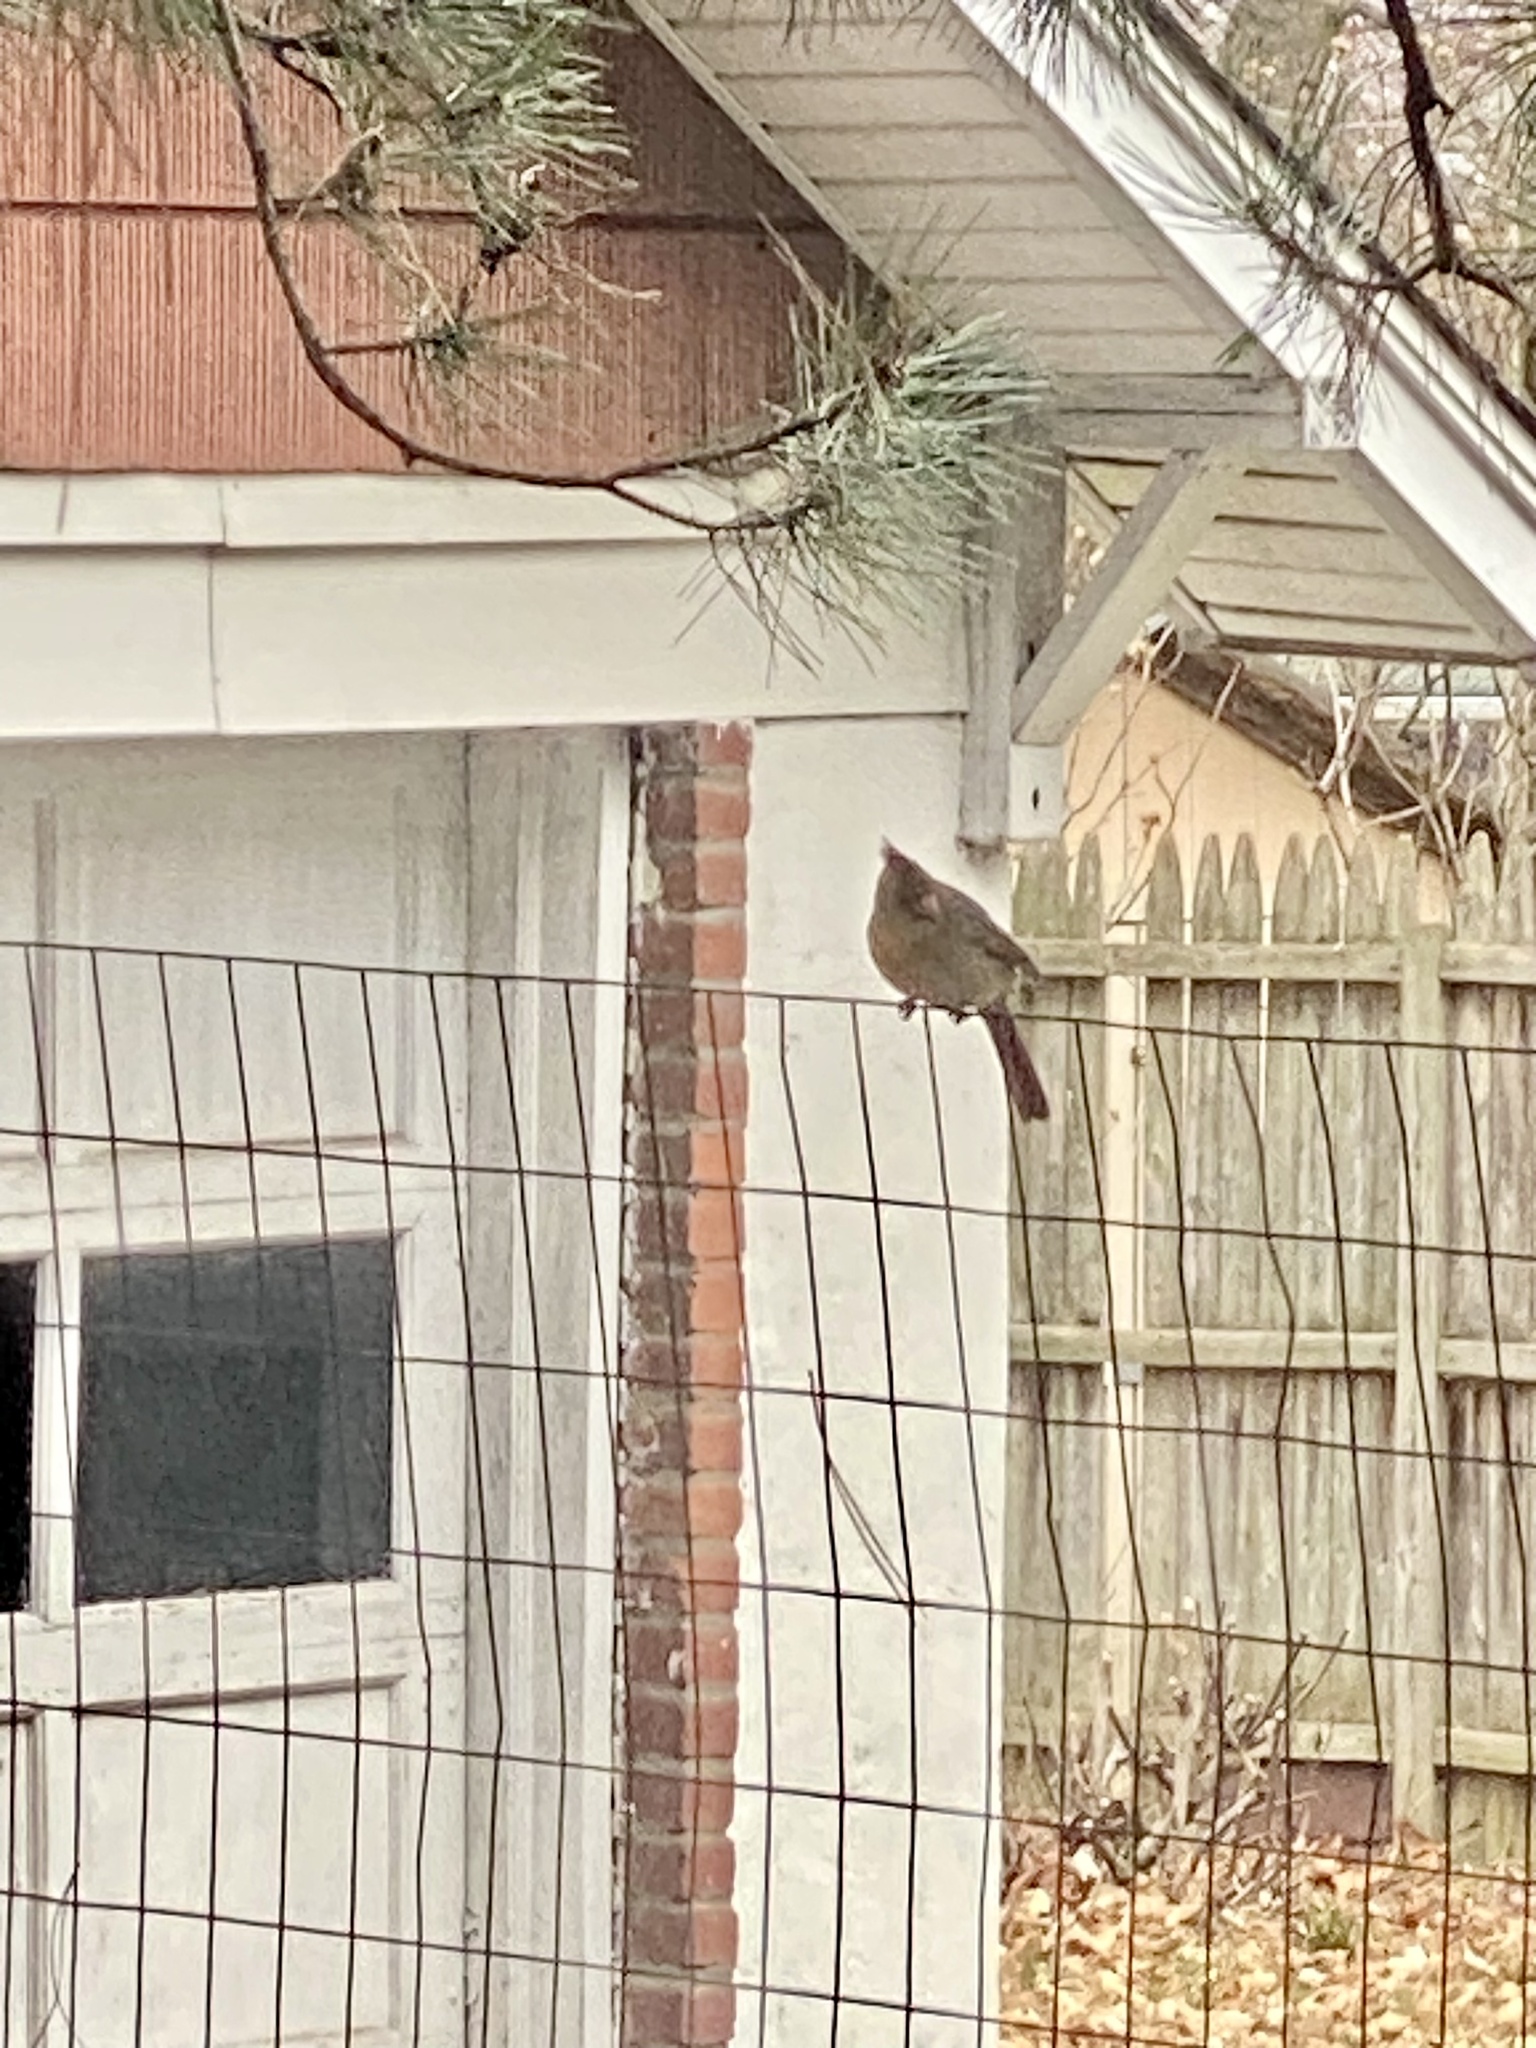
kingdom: Animalia
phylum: Chordata
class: Aves
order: Passeriformes
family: Cardinalidae
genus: Cardinalis
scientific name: Cardinalis cardinalis
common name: Northern cardinal
